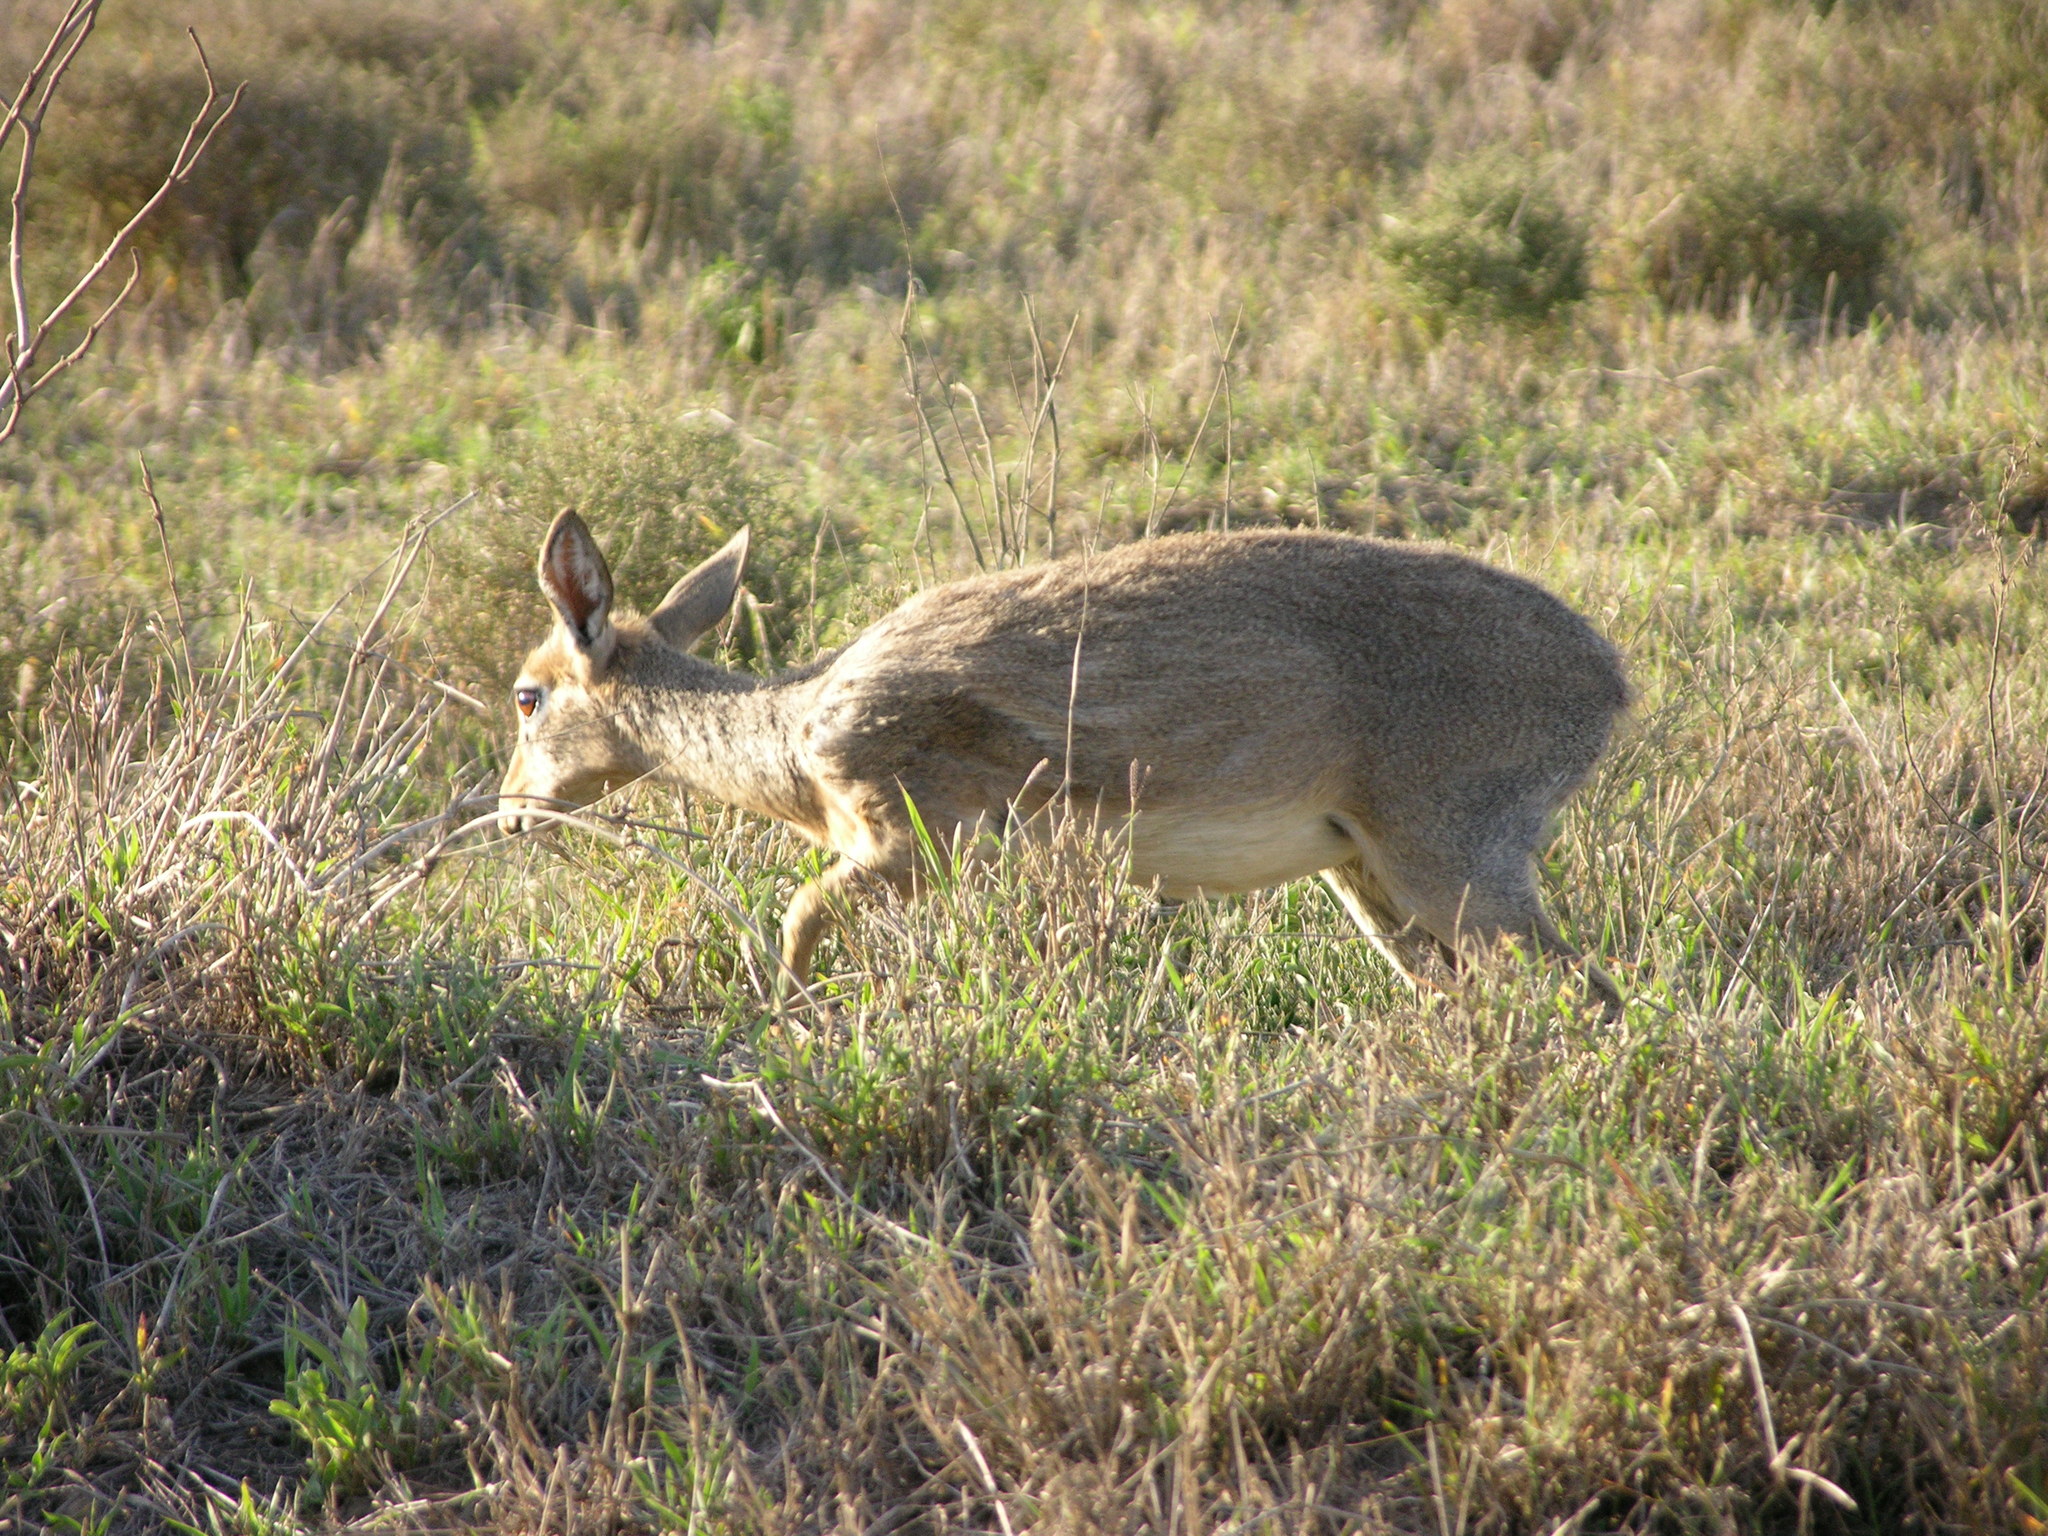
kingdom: Animalia
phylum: Chordata
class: Mammalia
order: Artiodactyla
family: Bovidae
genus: Madoqua
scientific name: Madoqua
